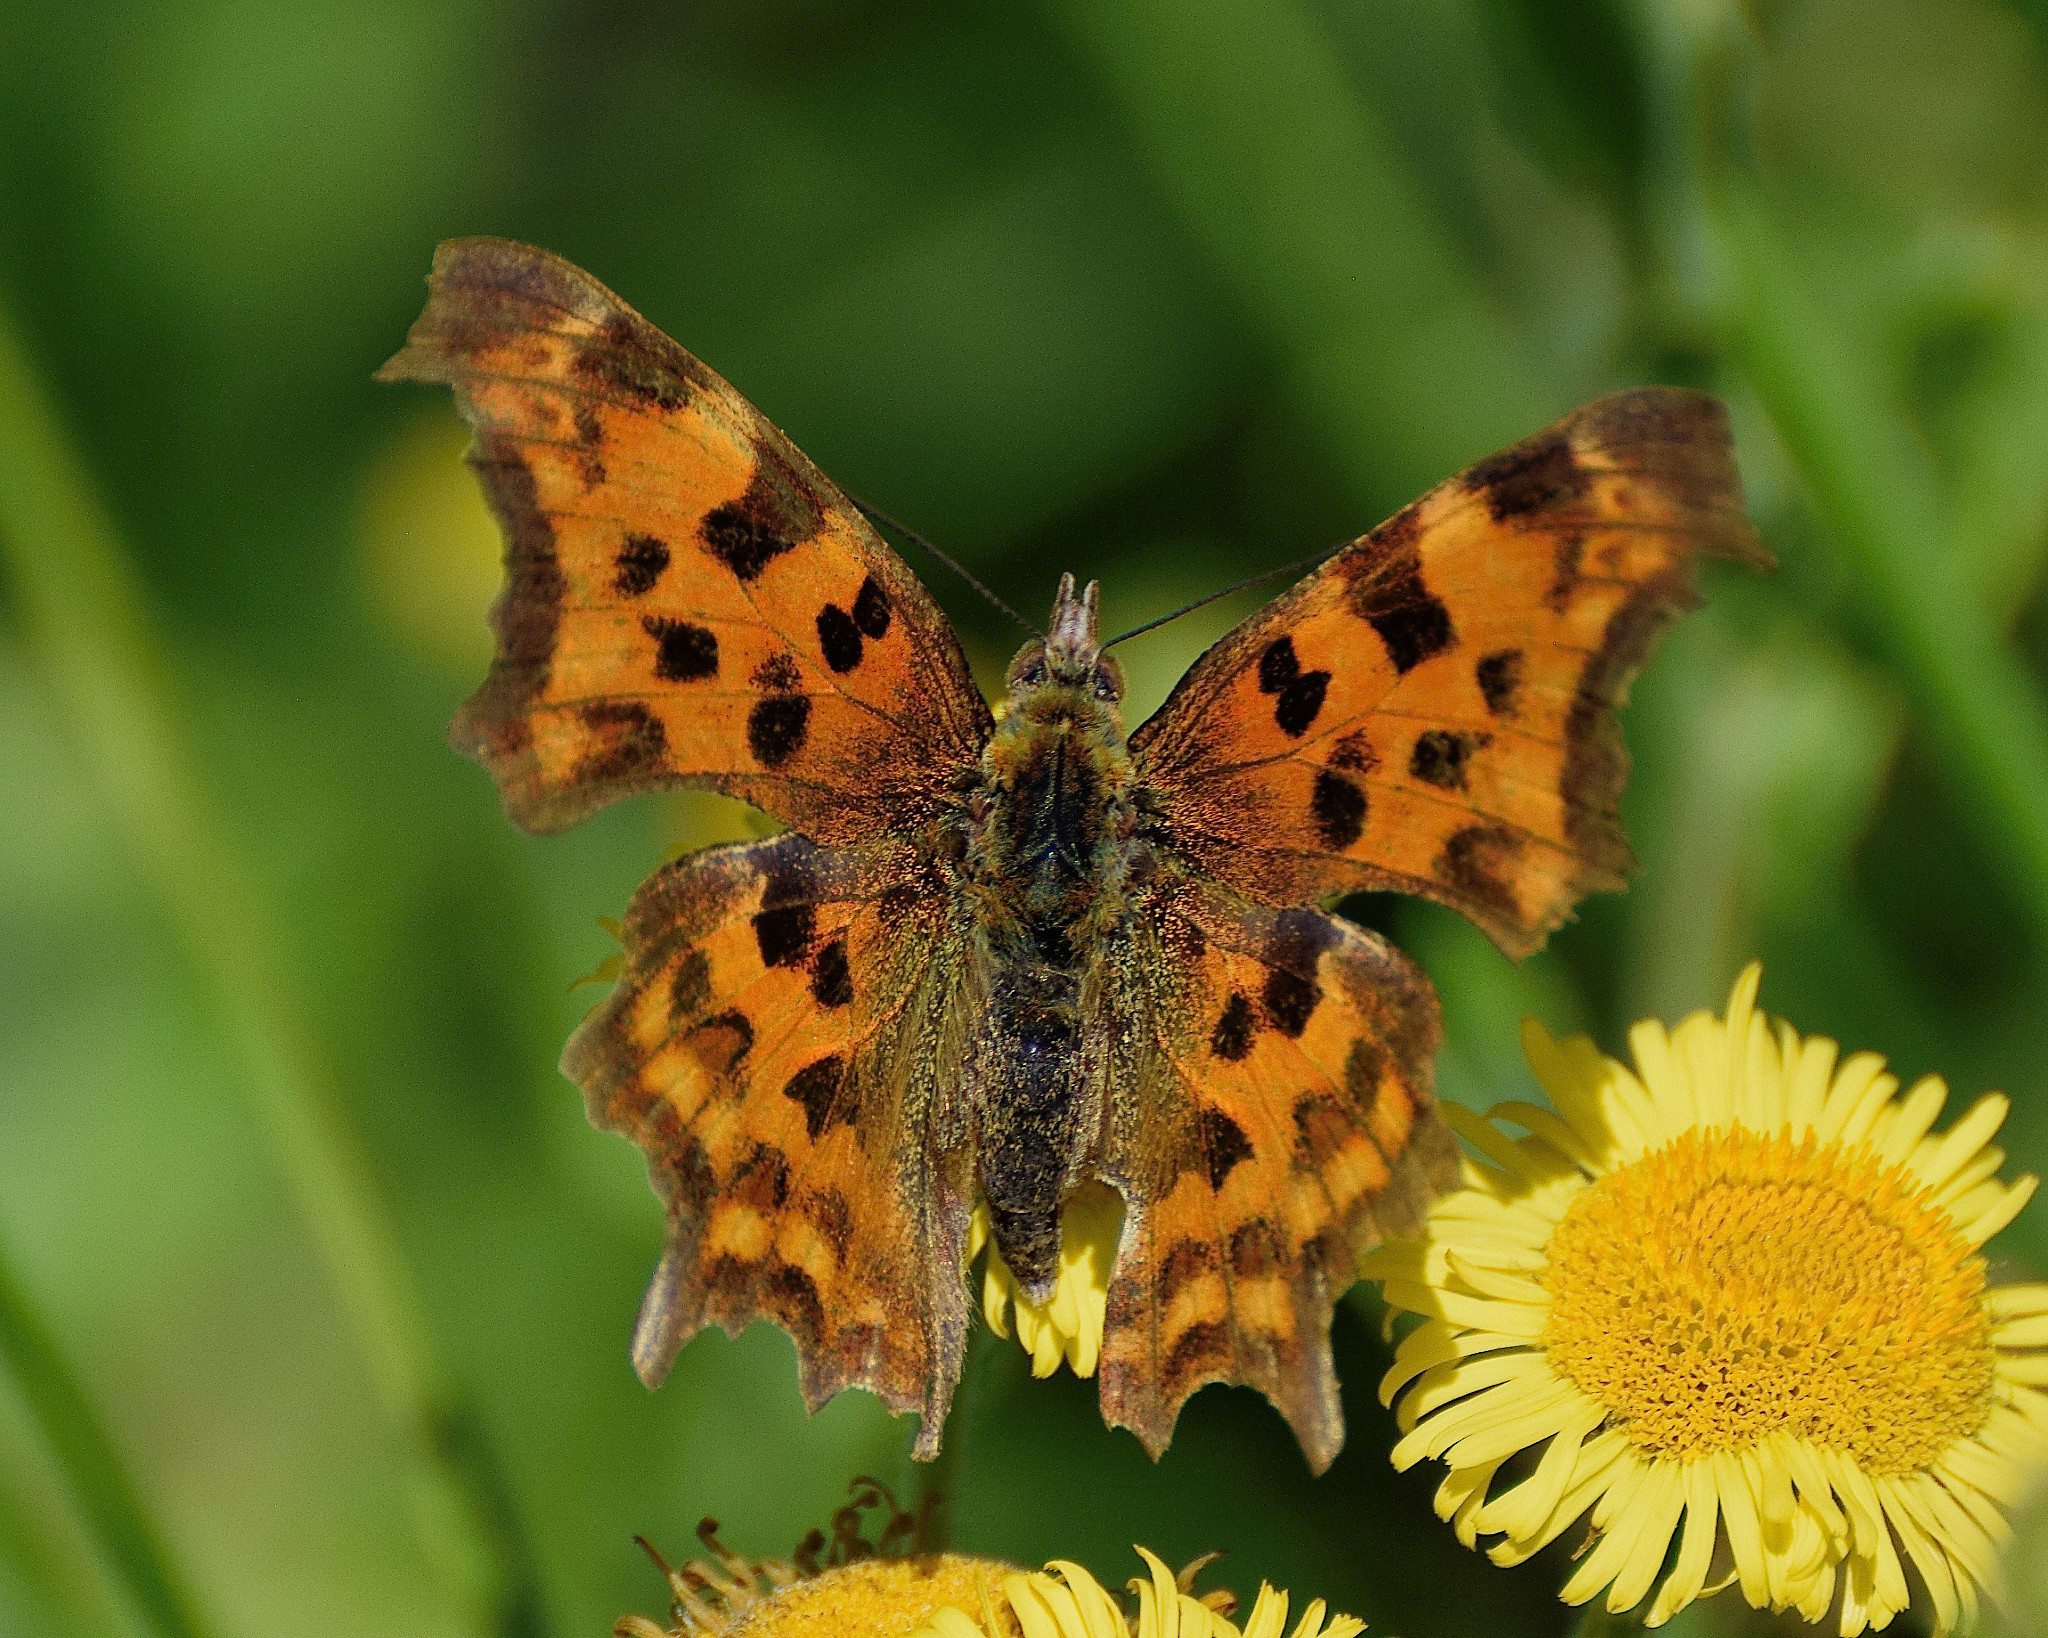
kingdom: Animalia
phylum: Arthropoda
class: Insecta
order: Lepidoptera
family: Nymphalidae
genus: Polygonia
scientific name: Polygonia c-album
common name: Comma
